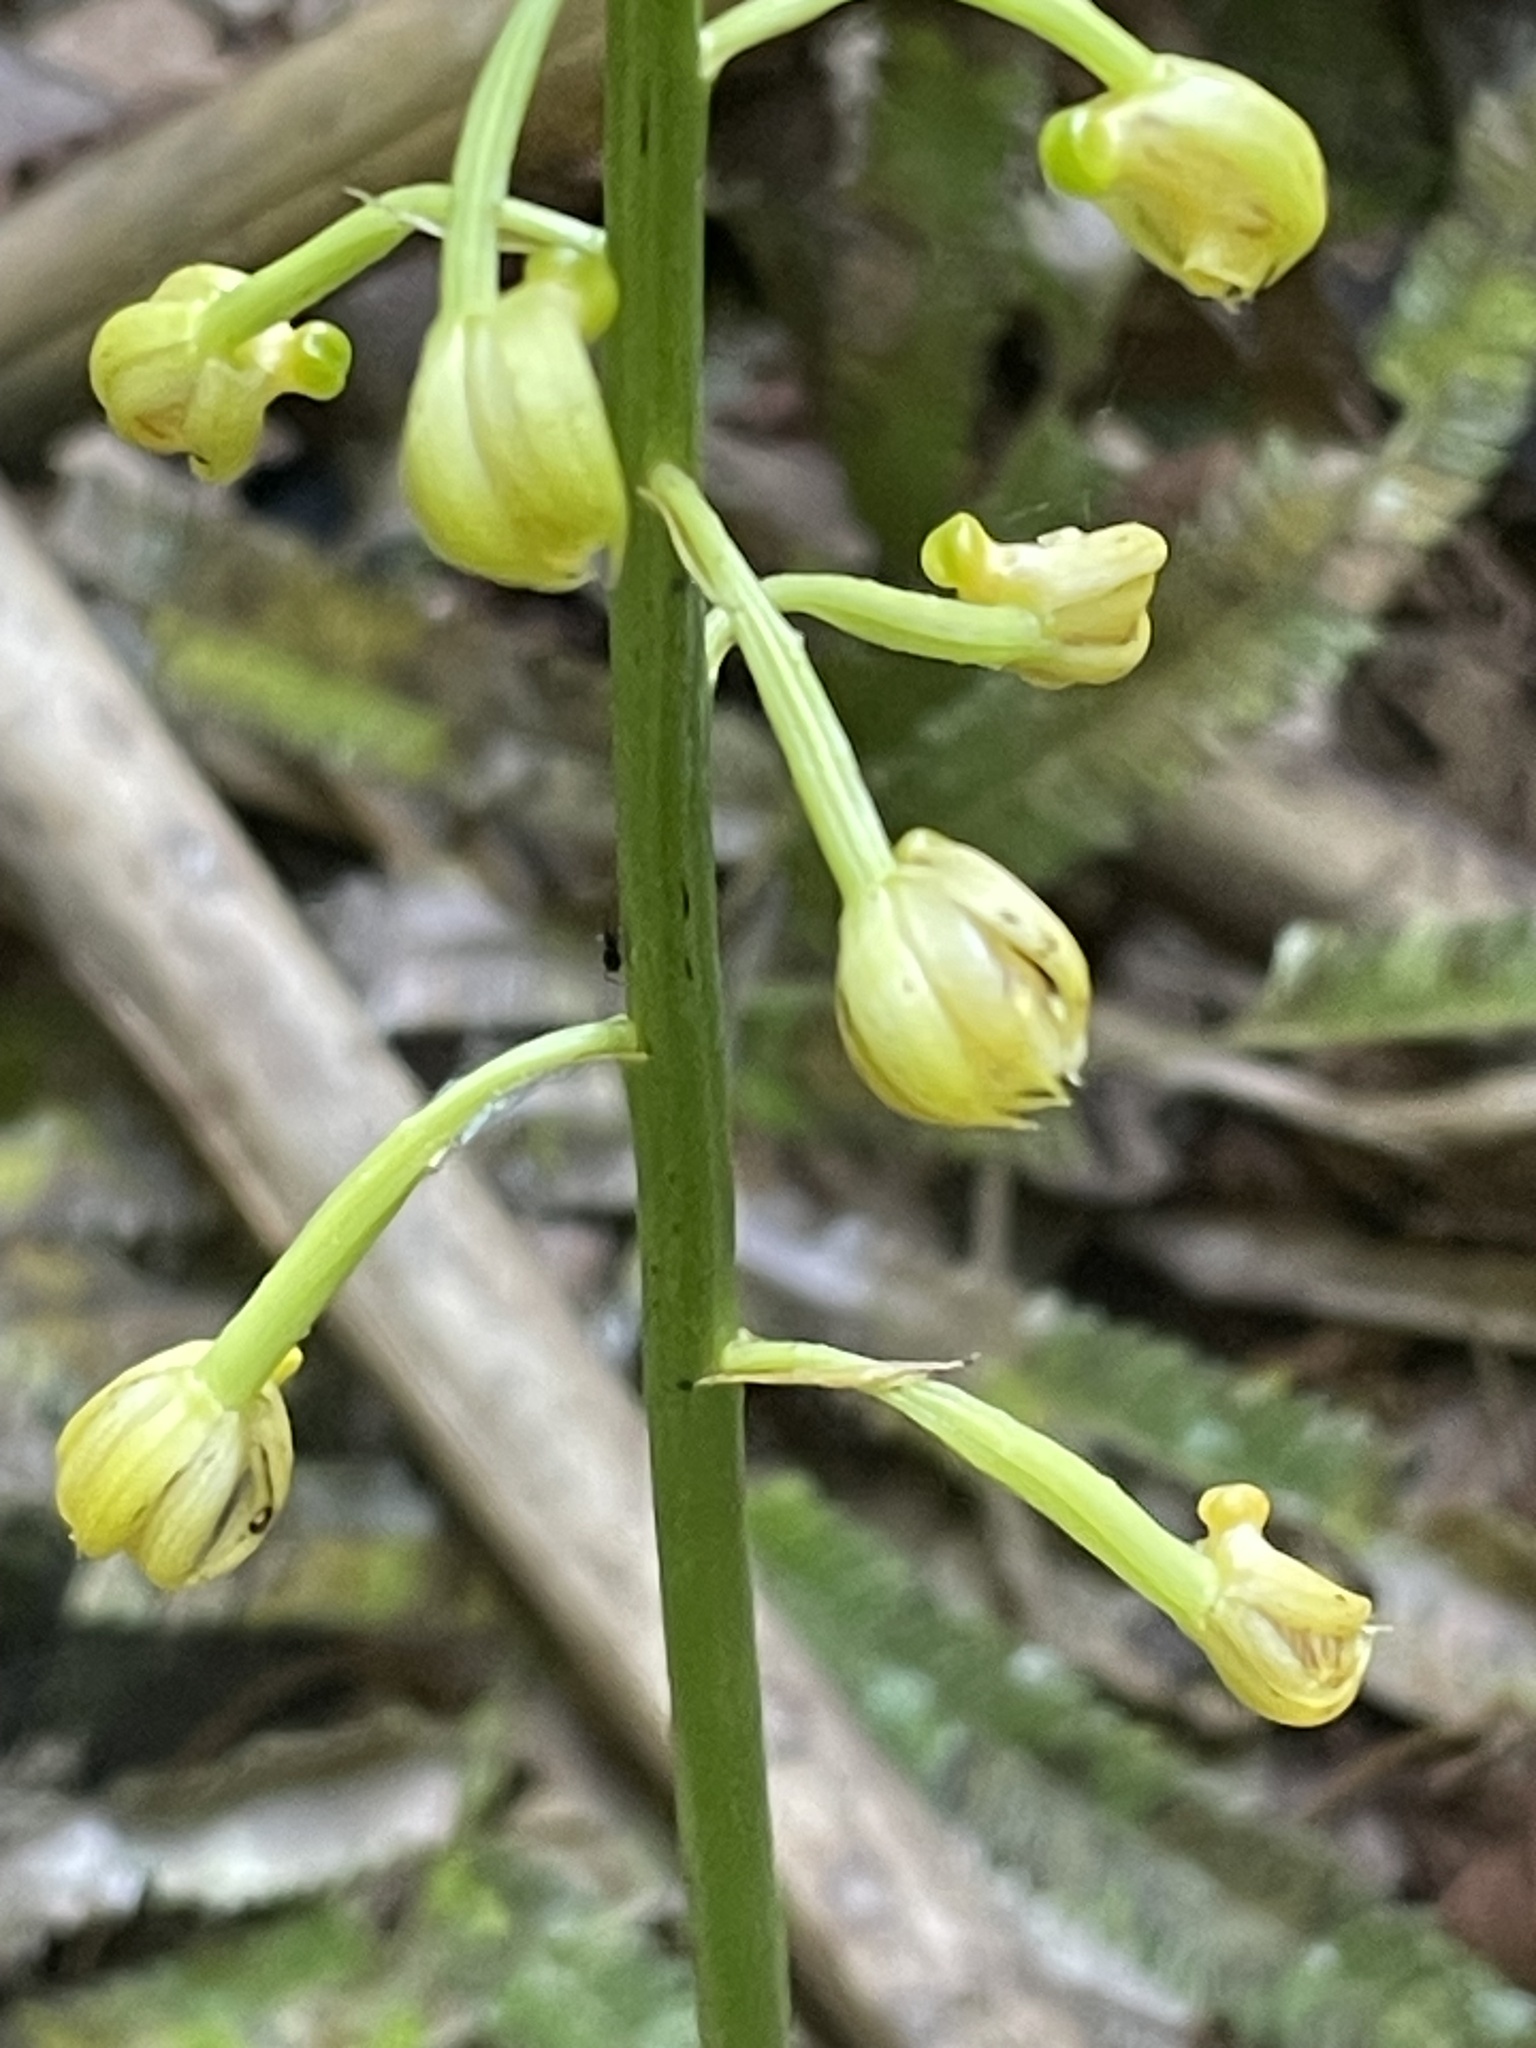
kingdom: Plantae
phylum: Tracheophyta
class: Liliopsida
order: Asparagales
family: Orchidaceae
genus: Eulophia
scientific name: Eulophia pulchra
